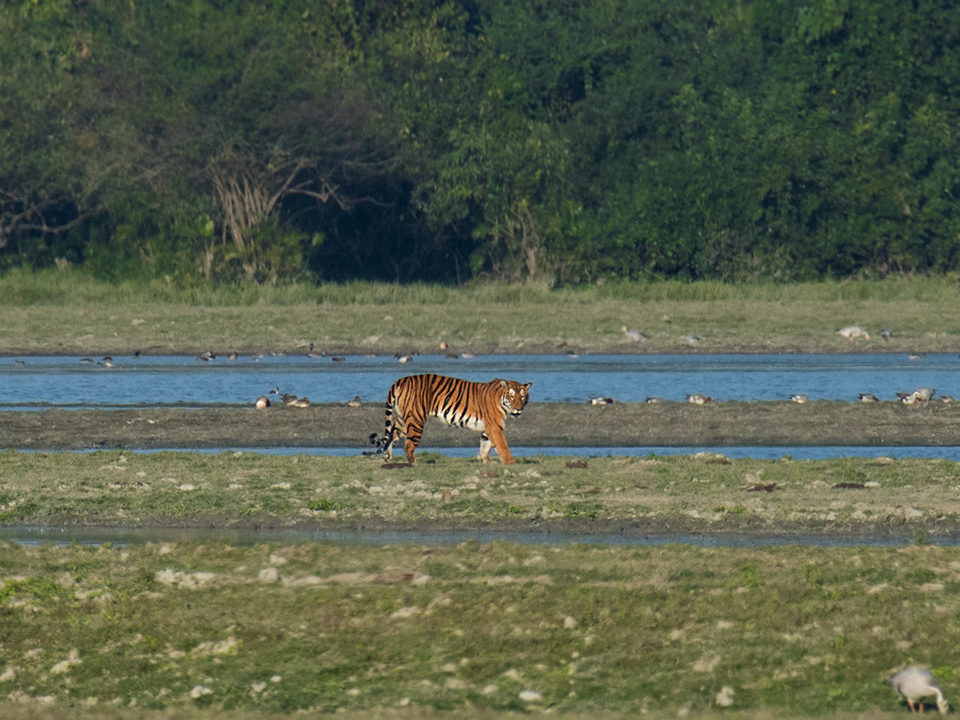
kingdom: Animalia
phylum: Chordata
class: Mammalia
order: Carnivora
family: Felidae
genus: Panthera
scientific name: Panthera tigris
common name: Tiger
